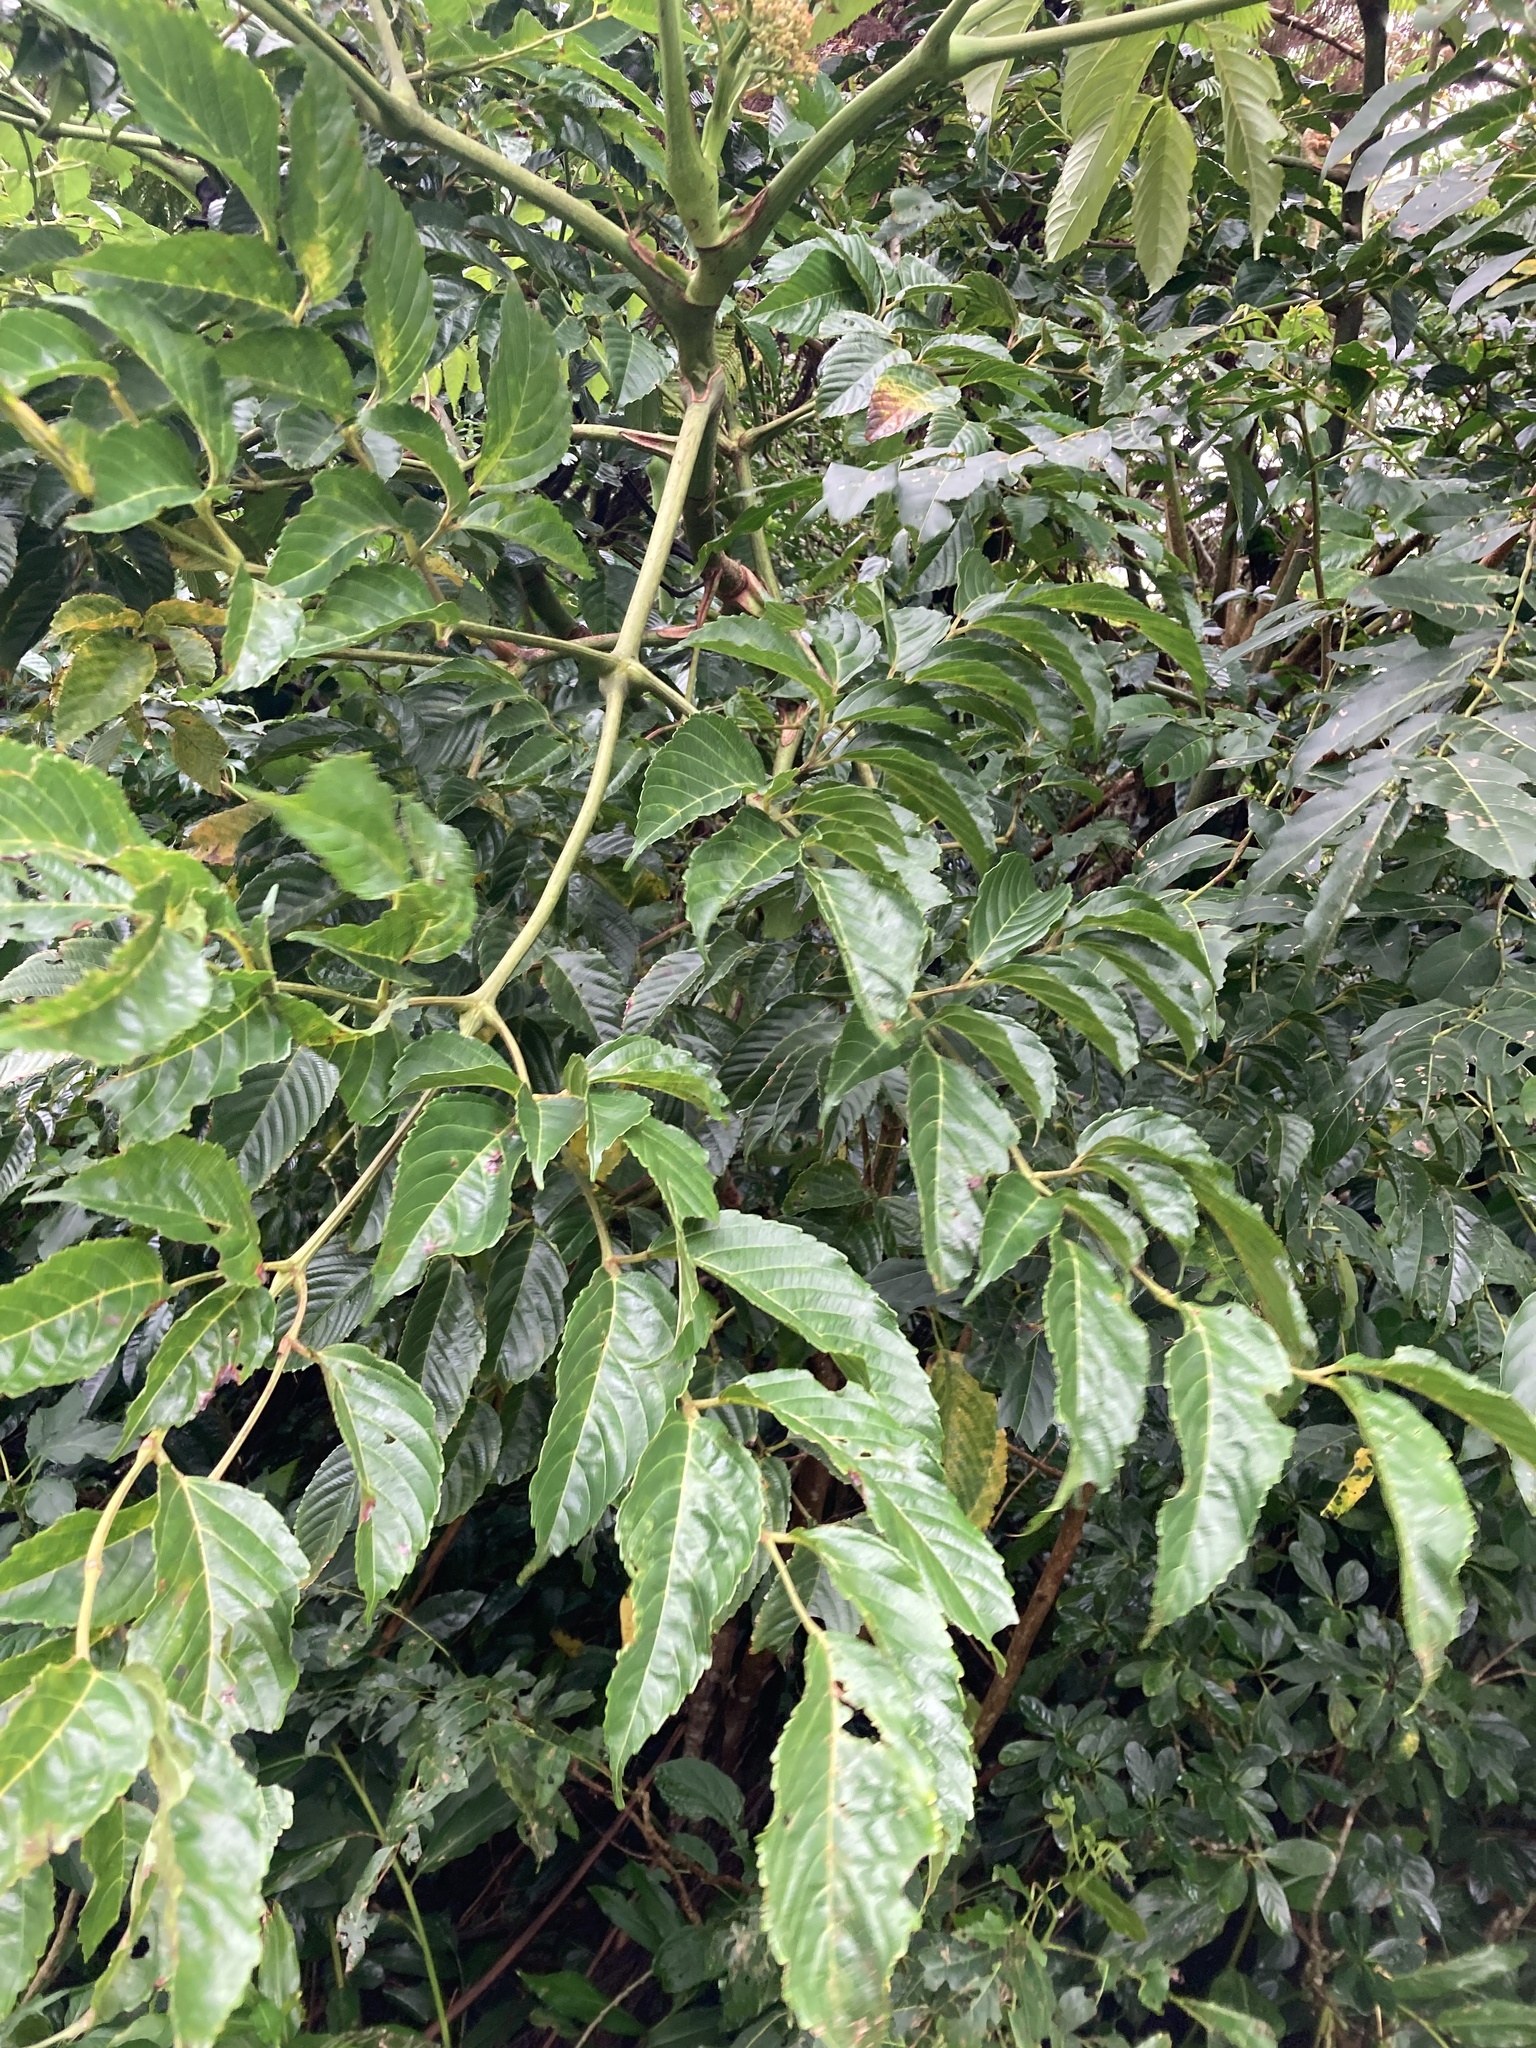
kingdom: Plantae
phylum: Tracheophyta
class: Magnoliopsida
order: Vitales
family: Vitaceae
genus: Leea
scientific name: Leea guineensis
